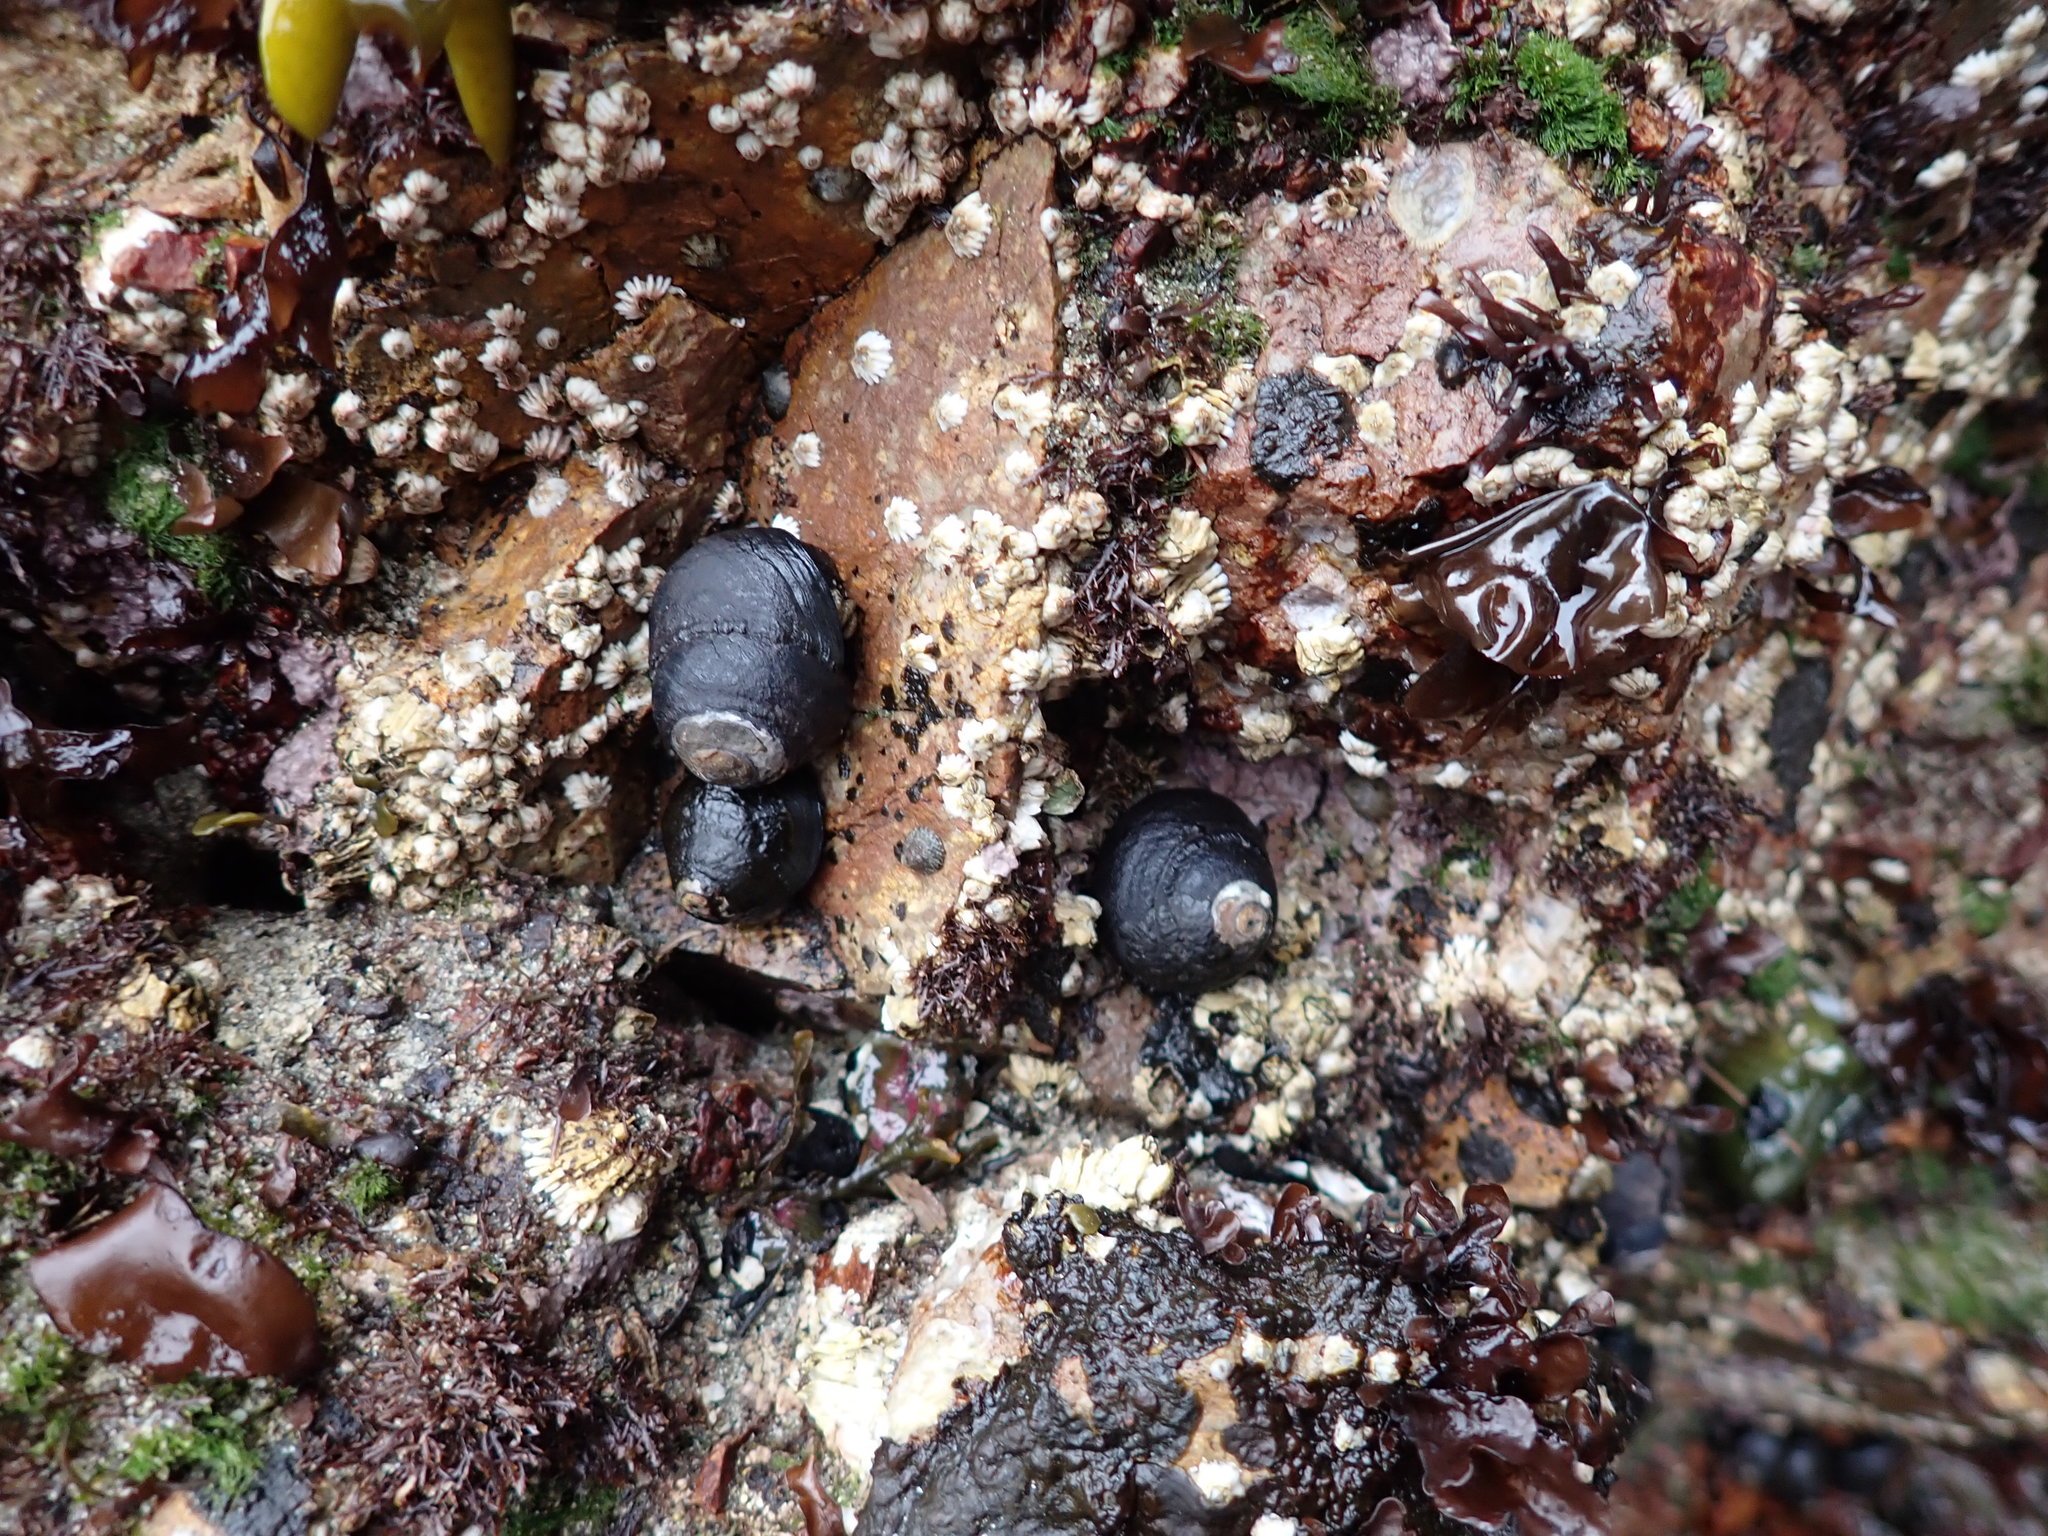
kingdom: Animalia
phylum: Mollusca
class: Gastropoda
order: Trochida
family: Tegulidae
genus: Tegula
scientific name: Tegula funebralis
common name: Black tegula
